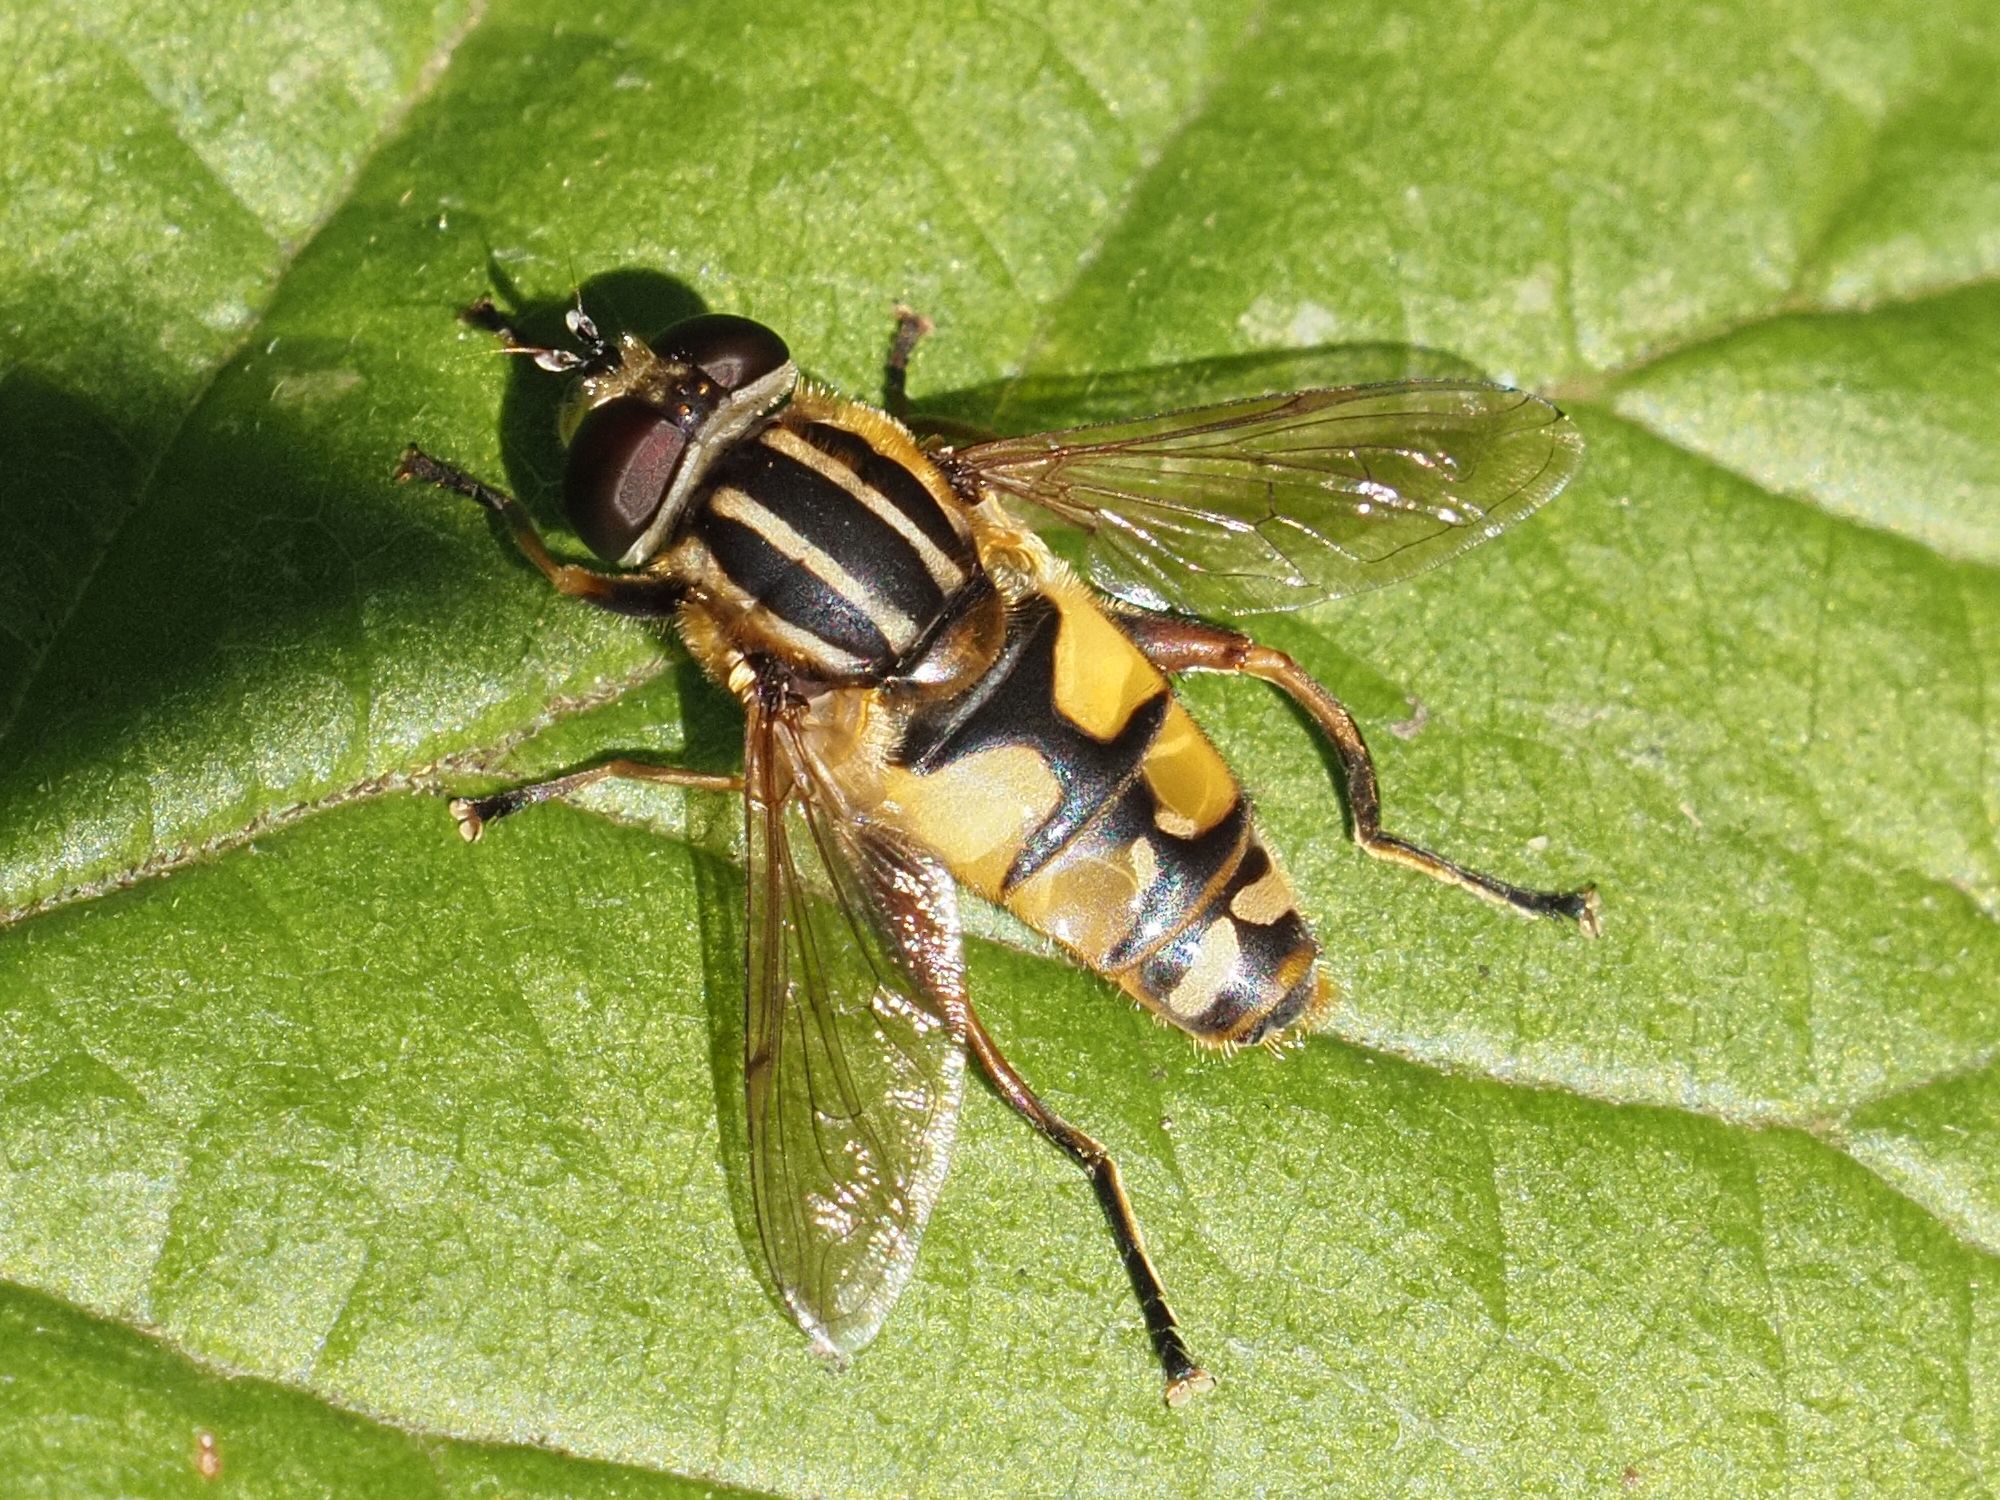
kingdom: Animalia
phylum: Arthropoda
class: Insecta
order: Diptera
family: Syrphidae
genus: Helophilus
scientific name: Helophilus pendulus
